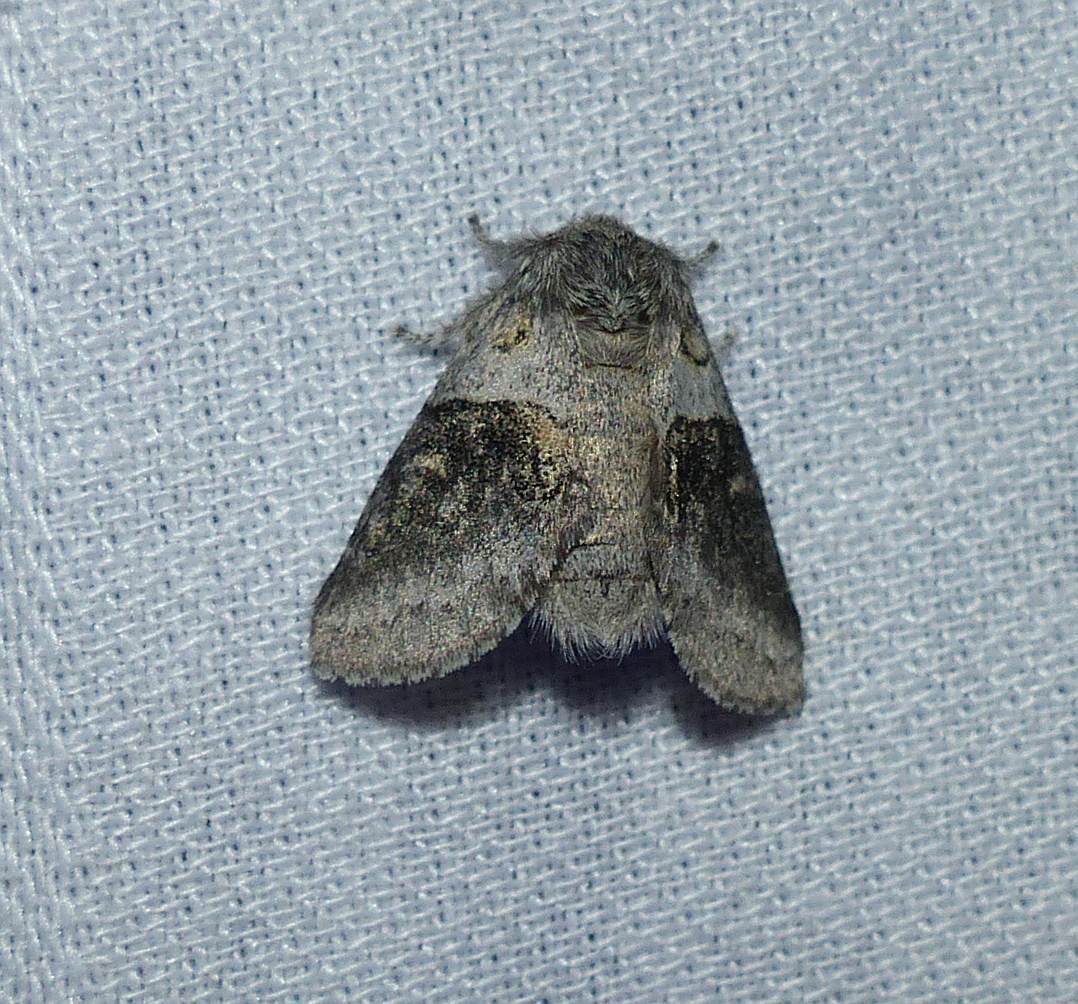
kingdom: Animalia
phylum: Arthropoda
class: Insecta
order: Lepidoptera
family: Notodontidae
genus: Gluphisia
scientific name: Gluphisia septentrionis
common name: Common gluphisia
